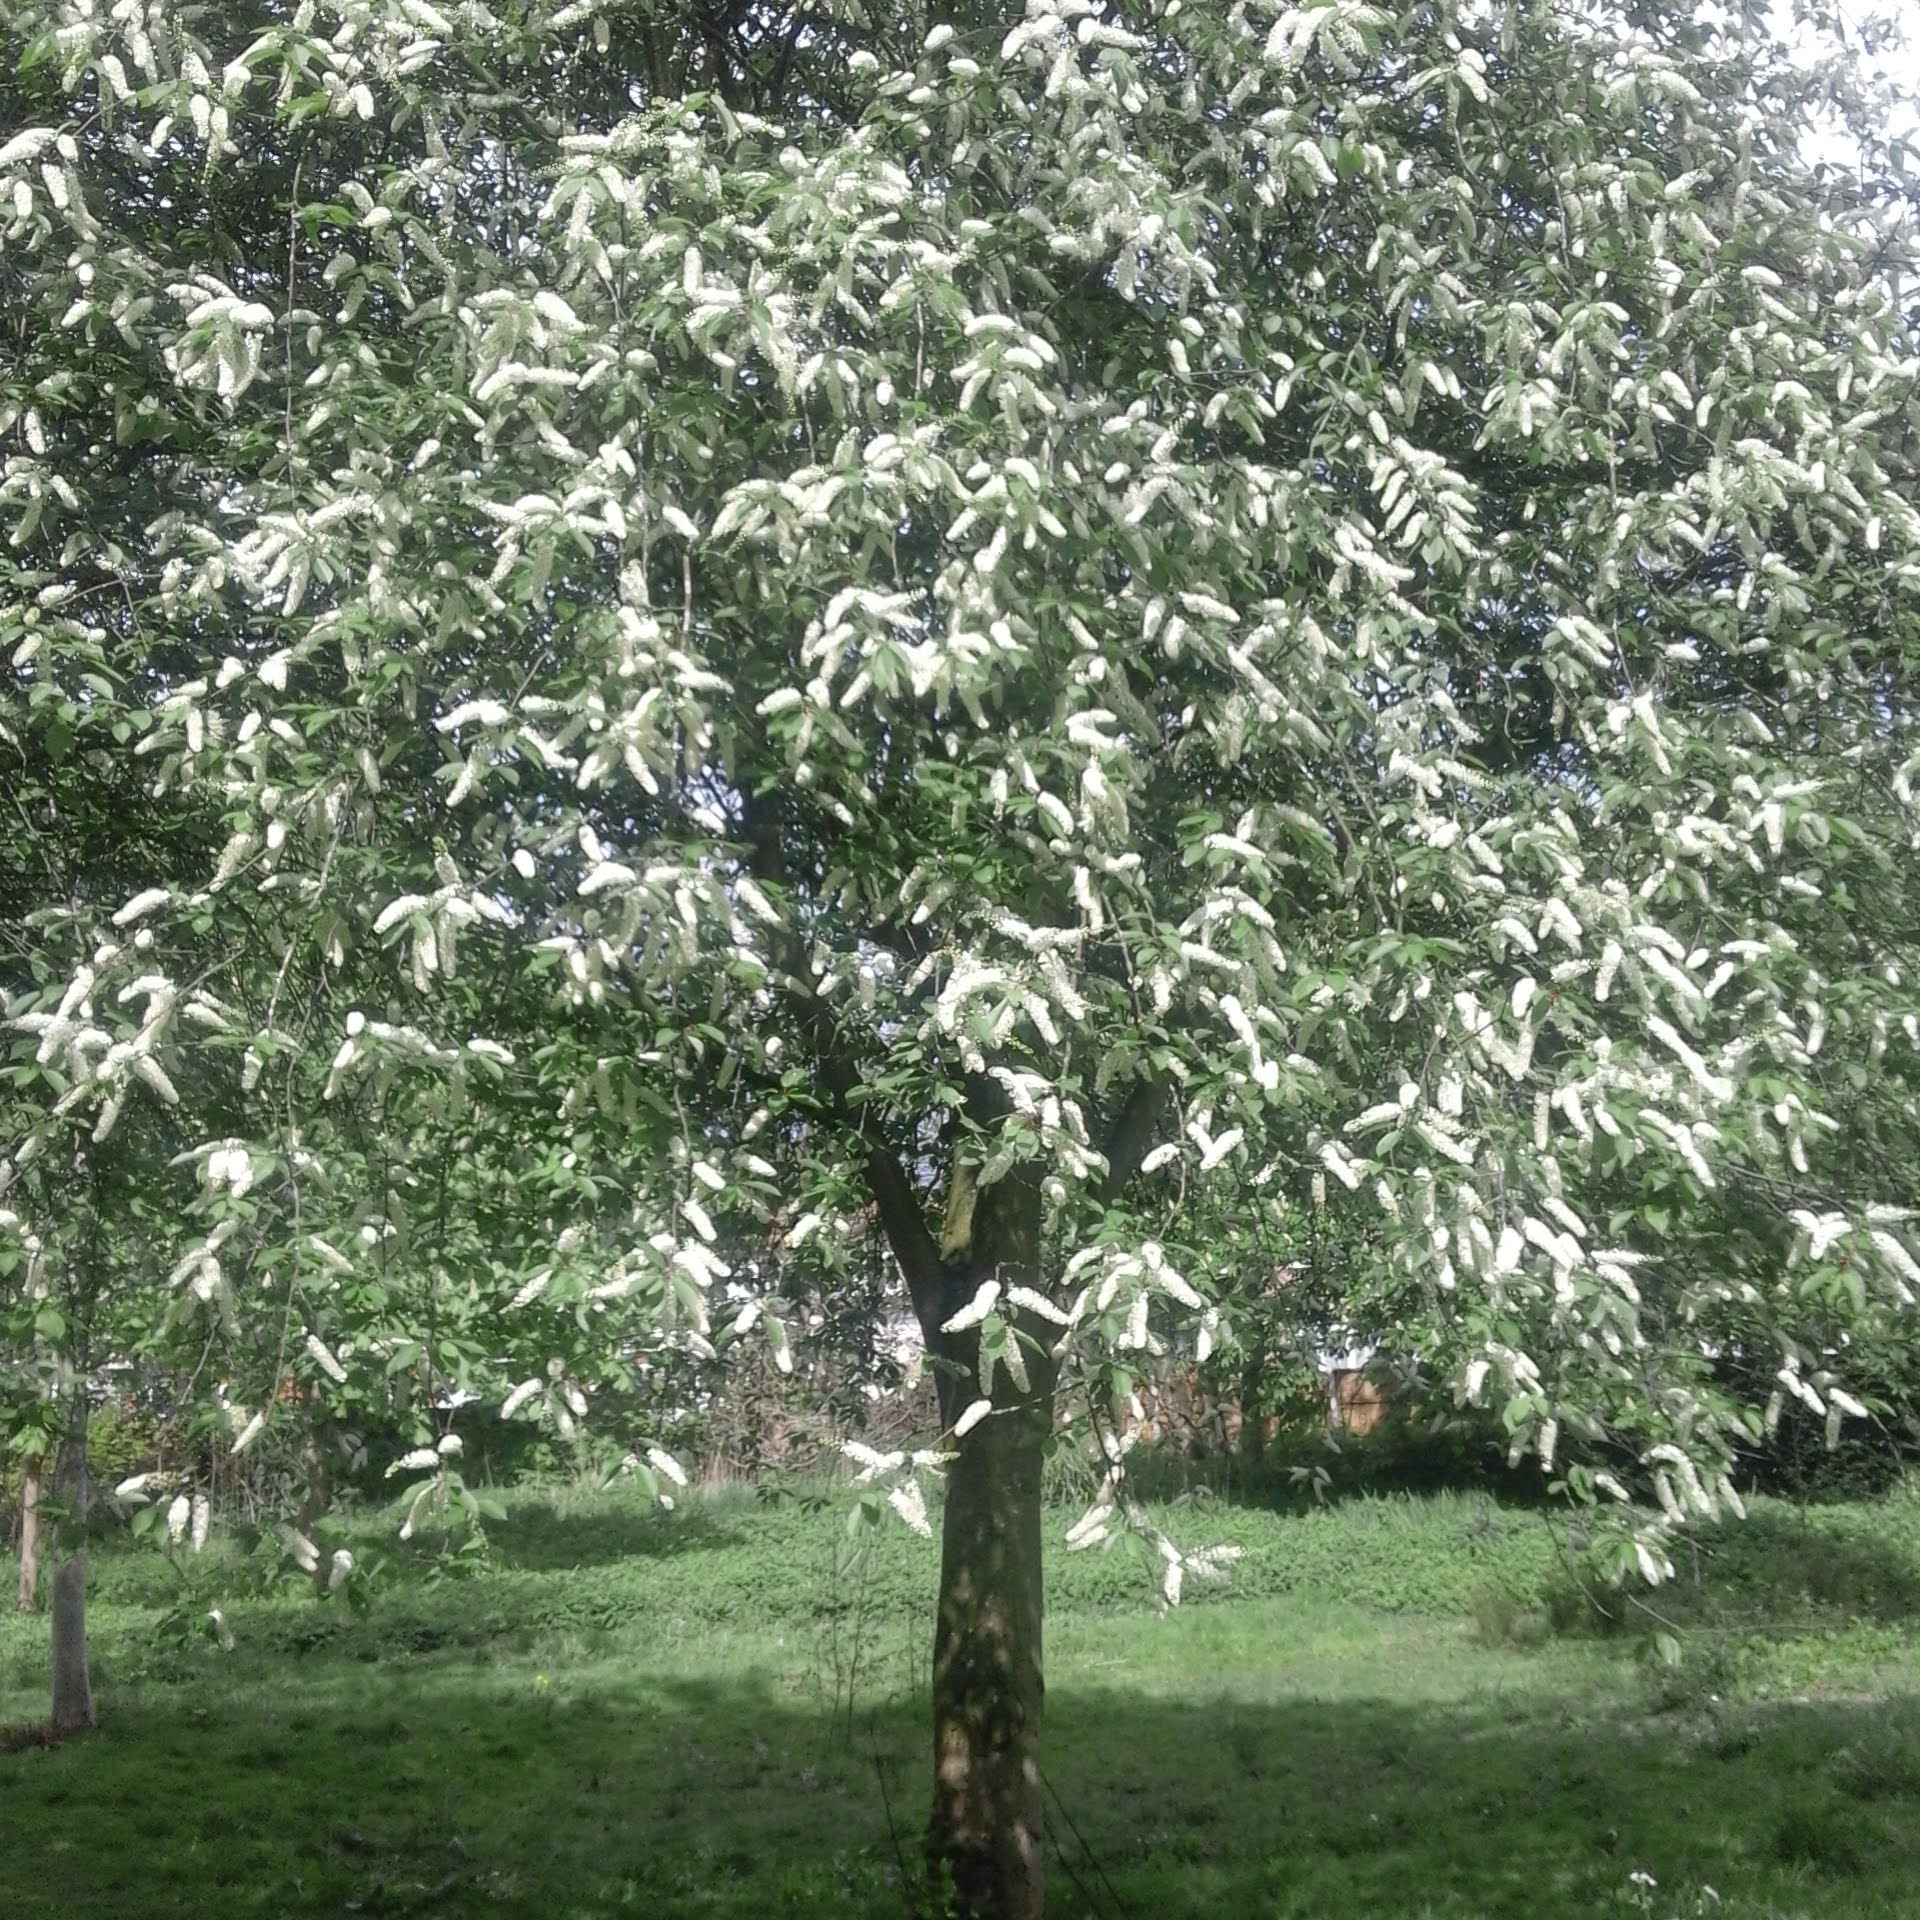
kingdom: Plantae
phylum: Tracheophyta
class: Magnoliopsida
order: Rosales
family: Rosaceae
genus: Prunus
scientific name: Prunus padus
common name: Bird cherry
